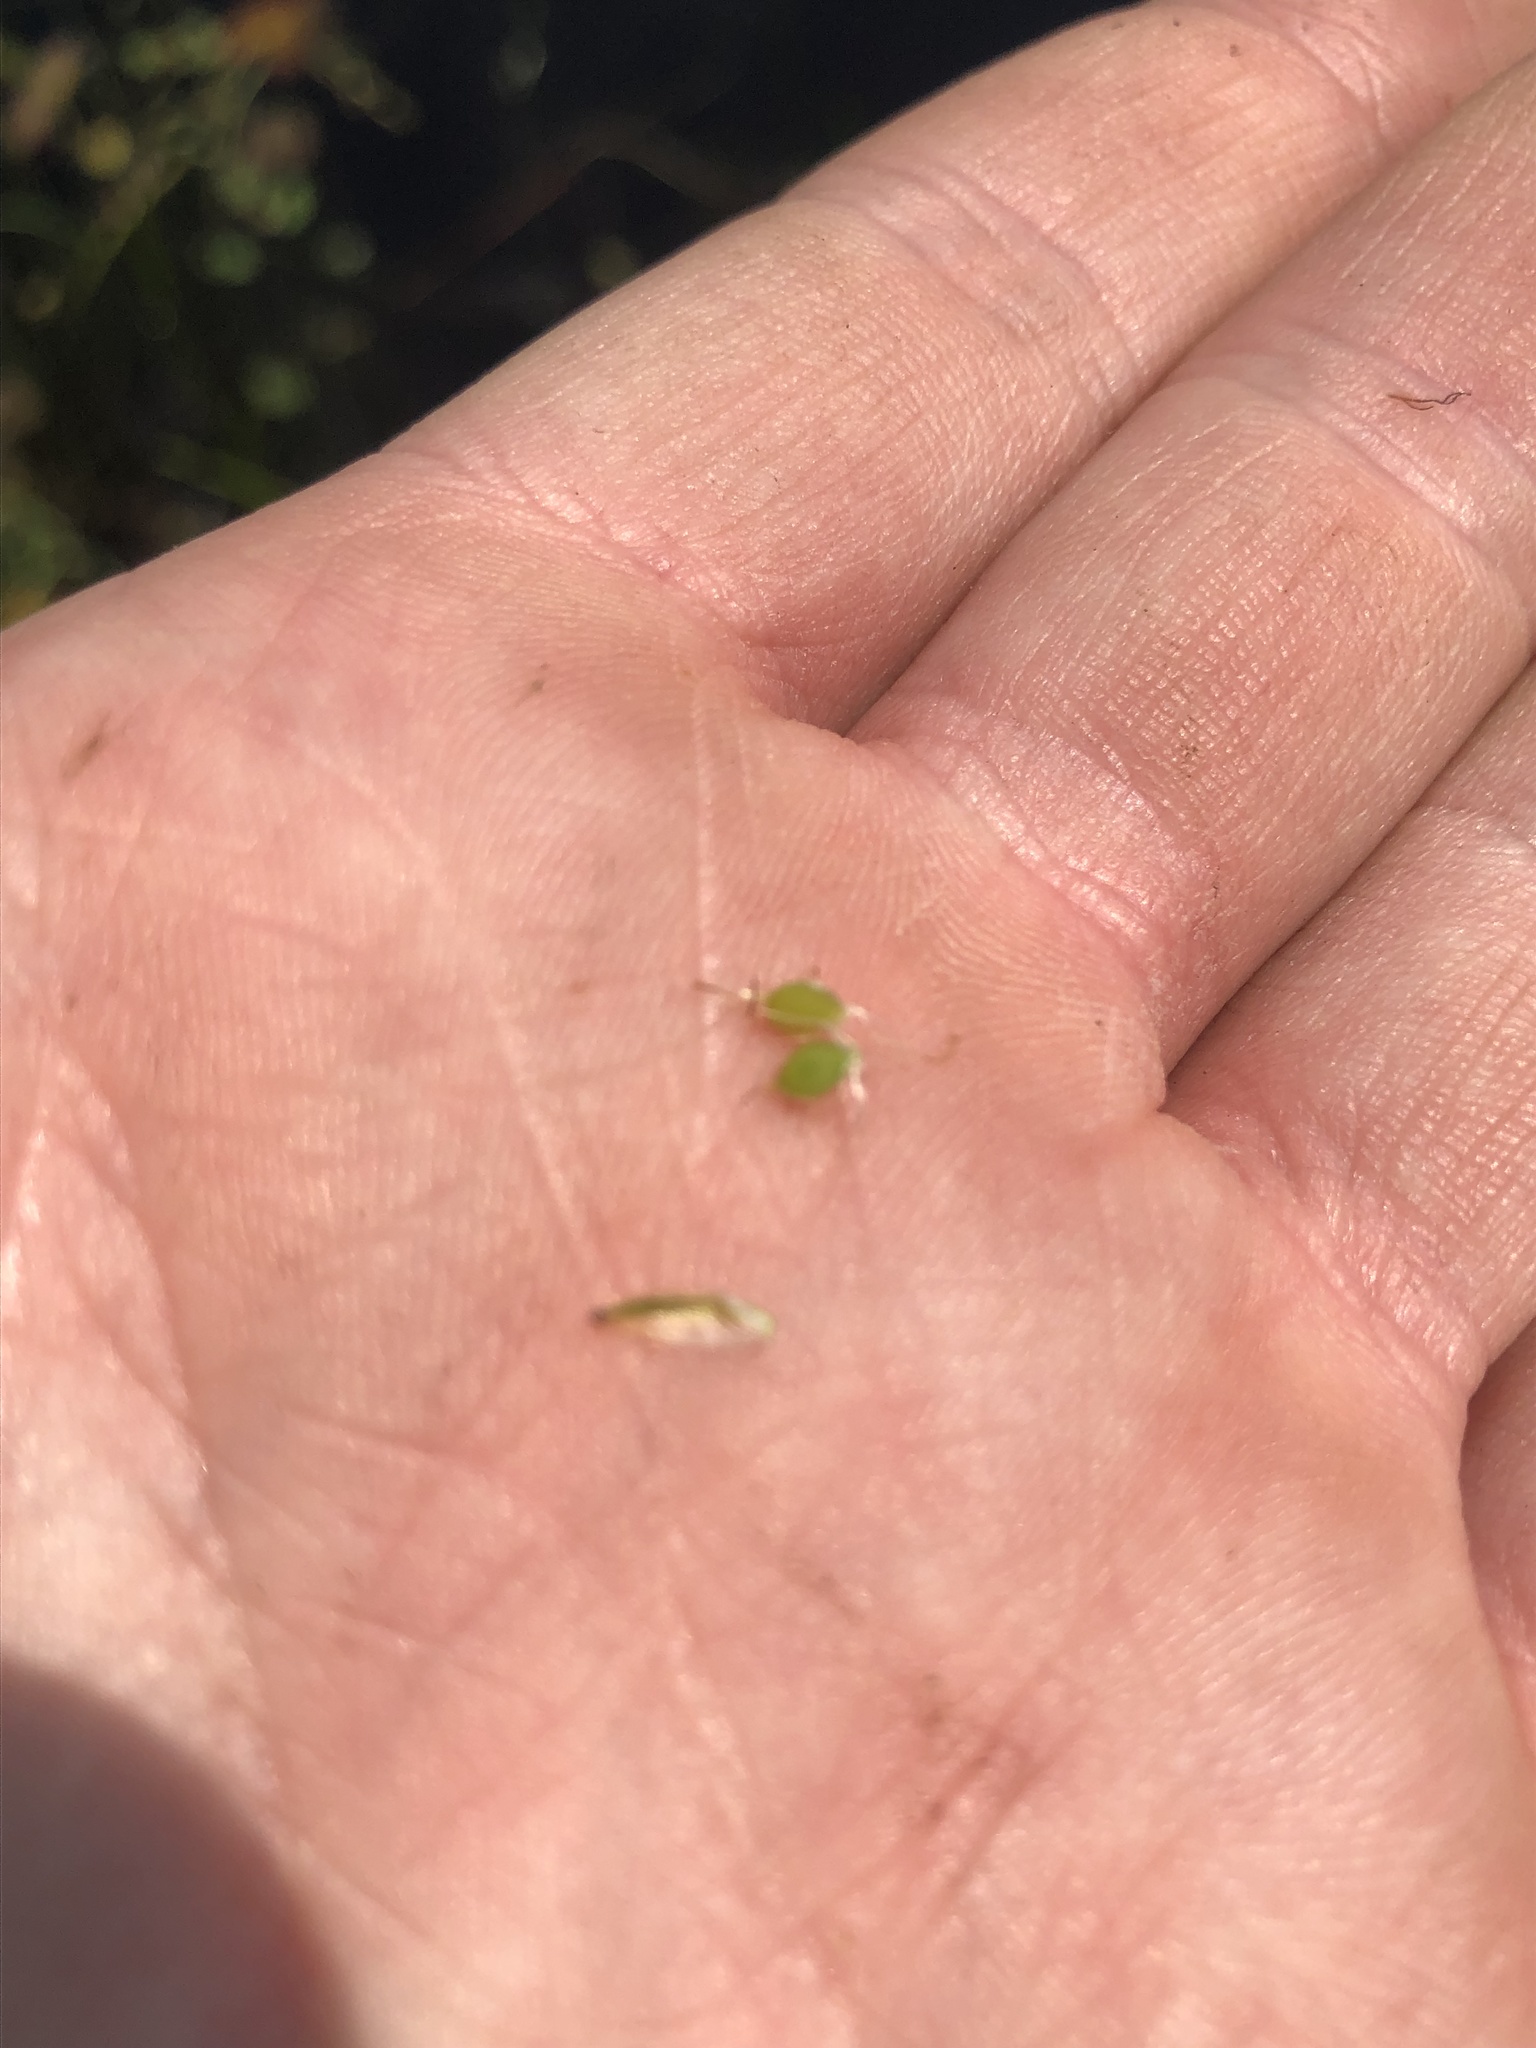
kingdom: Plantae
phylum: Tracheophyta
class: Liliopsida
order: Poales
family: Cyperaceae
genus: Schoenoplectus
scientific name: Schoenoplectus etuberculatus
